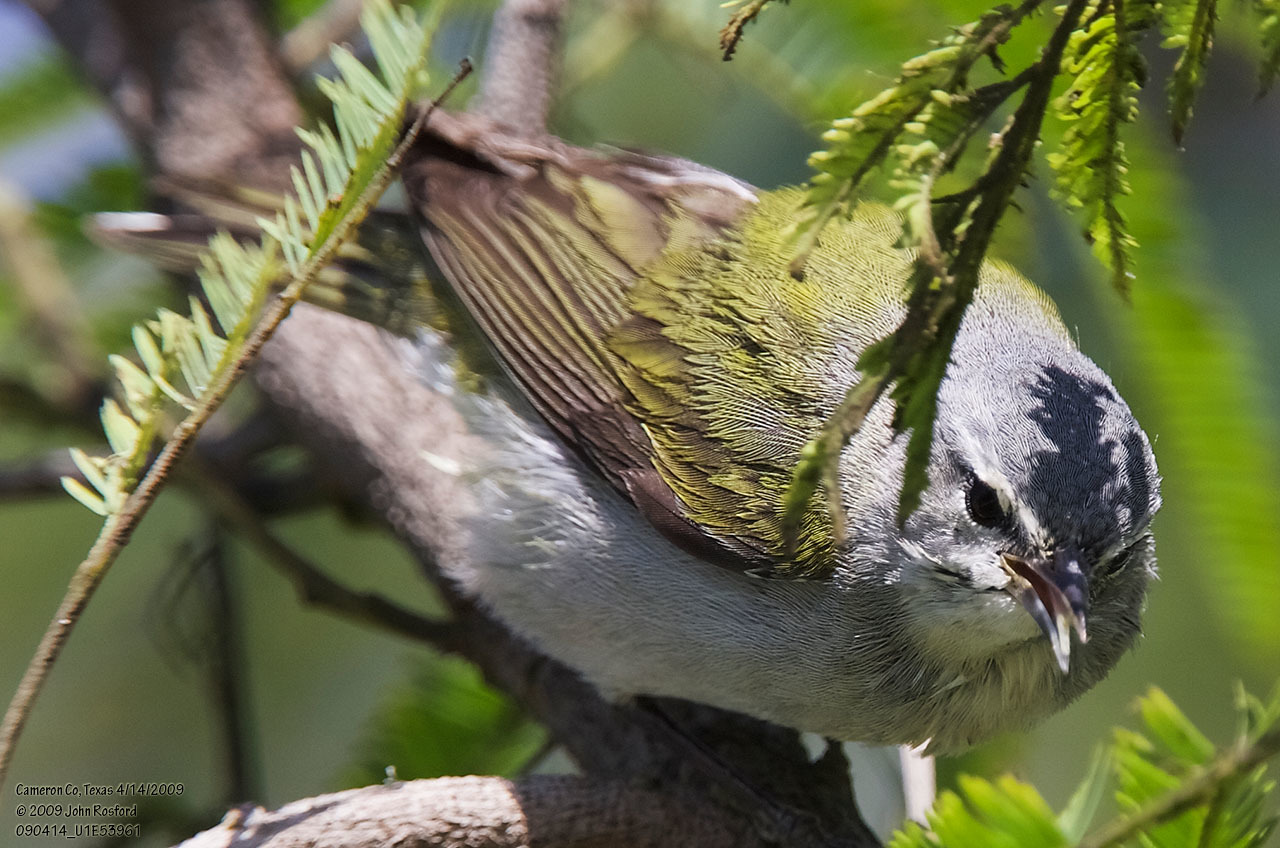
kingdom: Animalia
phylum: Chordata
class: Aves
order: Passeriformes
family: Parulidae
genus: Leiothlypis
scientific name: Leiothlypis peregrina
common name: Tennessee warbler
